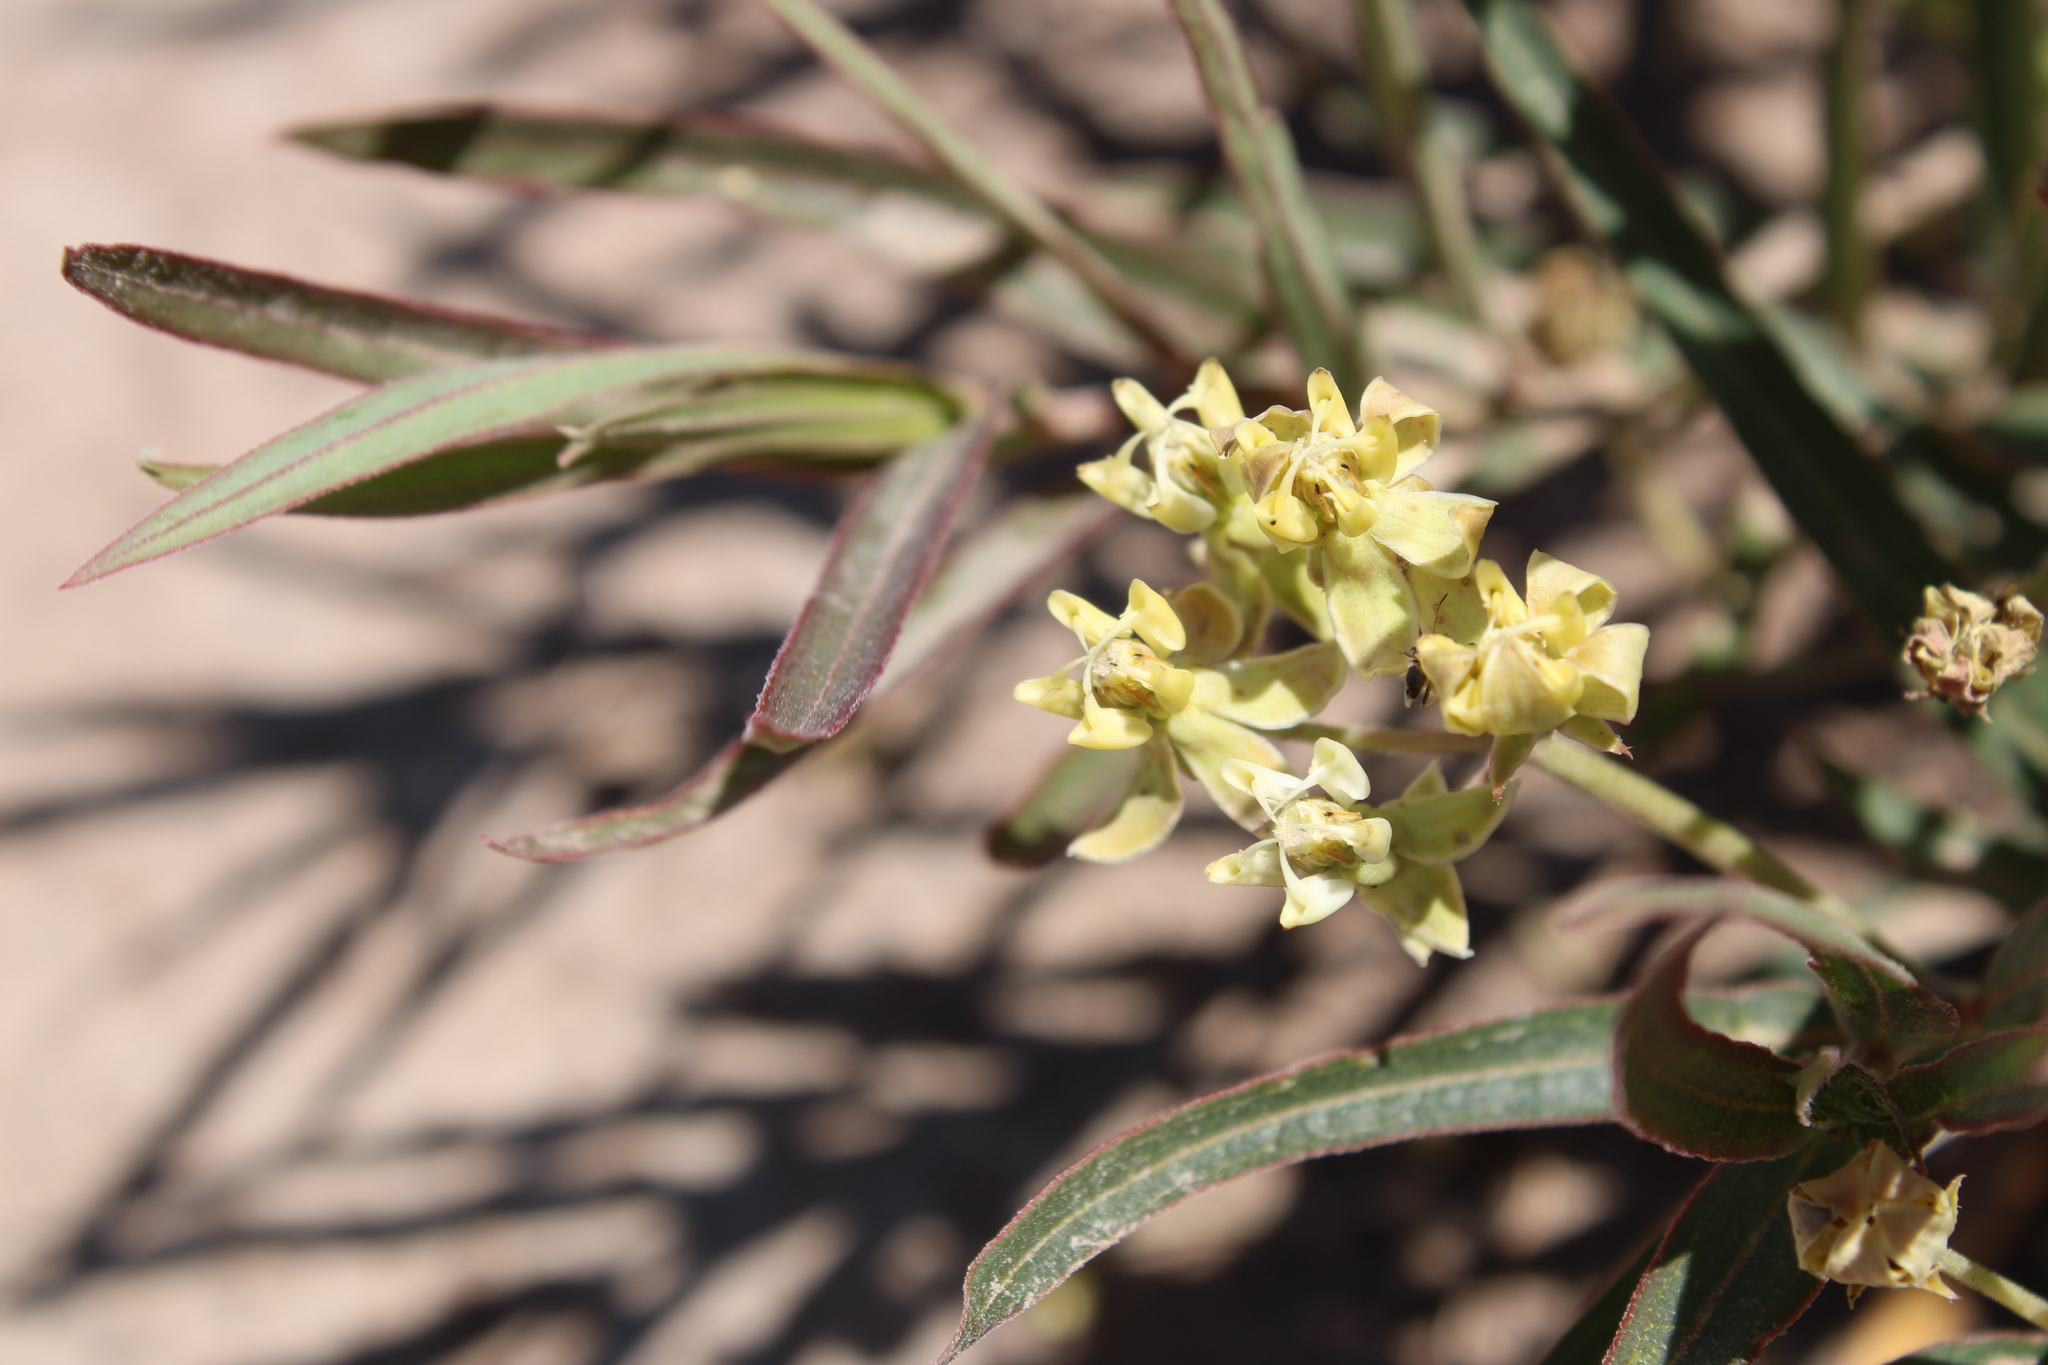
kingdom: Plantae
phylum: Tracheophyta
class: Magnoliopsida
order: Gentianales
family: Apocynaceae
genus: Asclepias
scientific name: Asclepias mellodora
